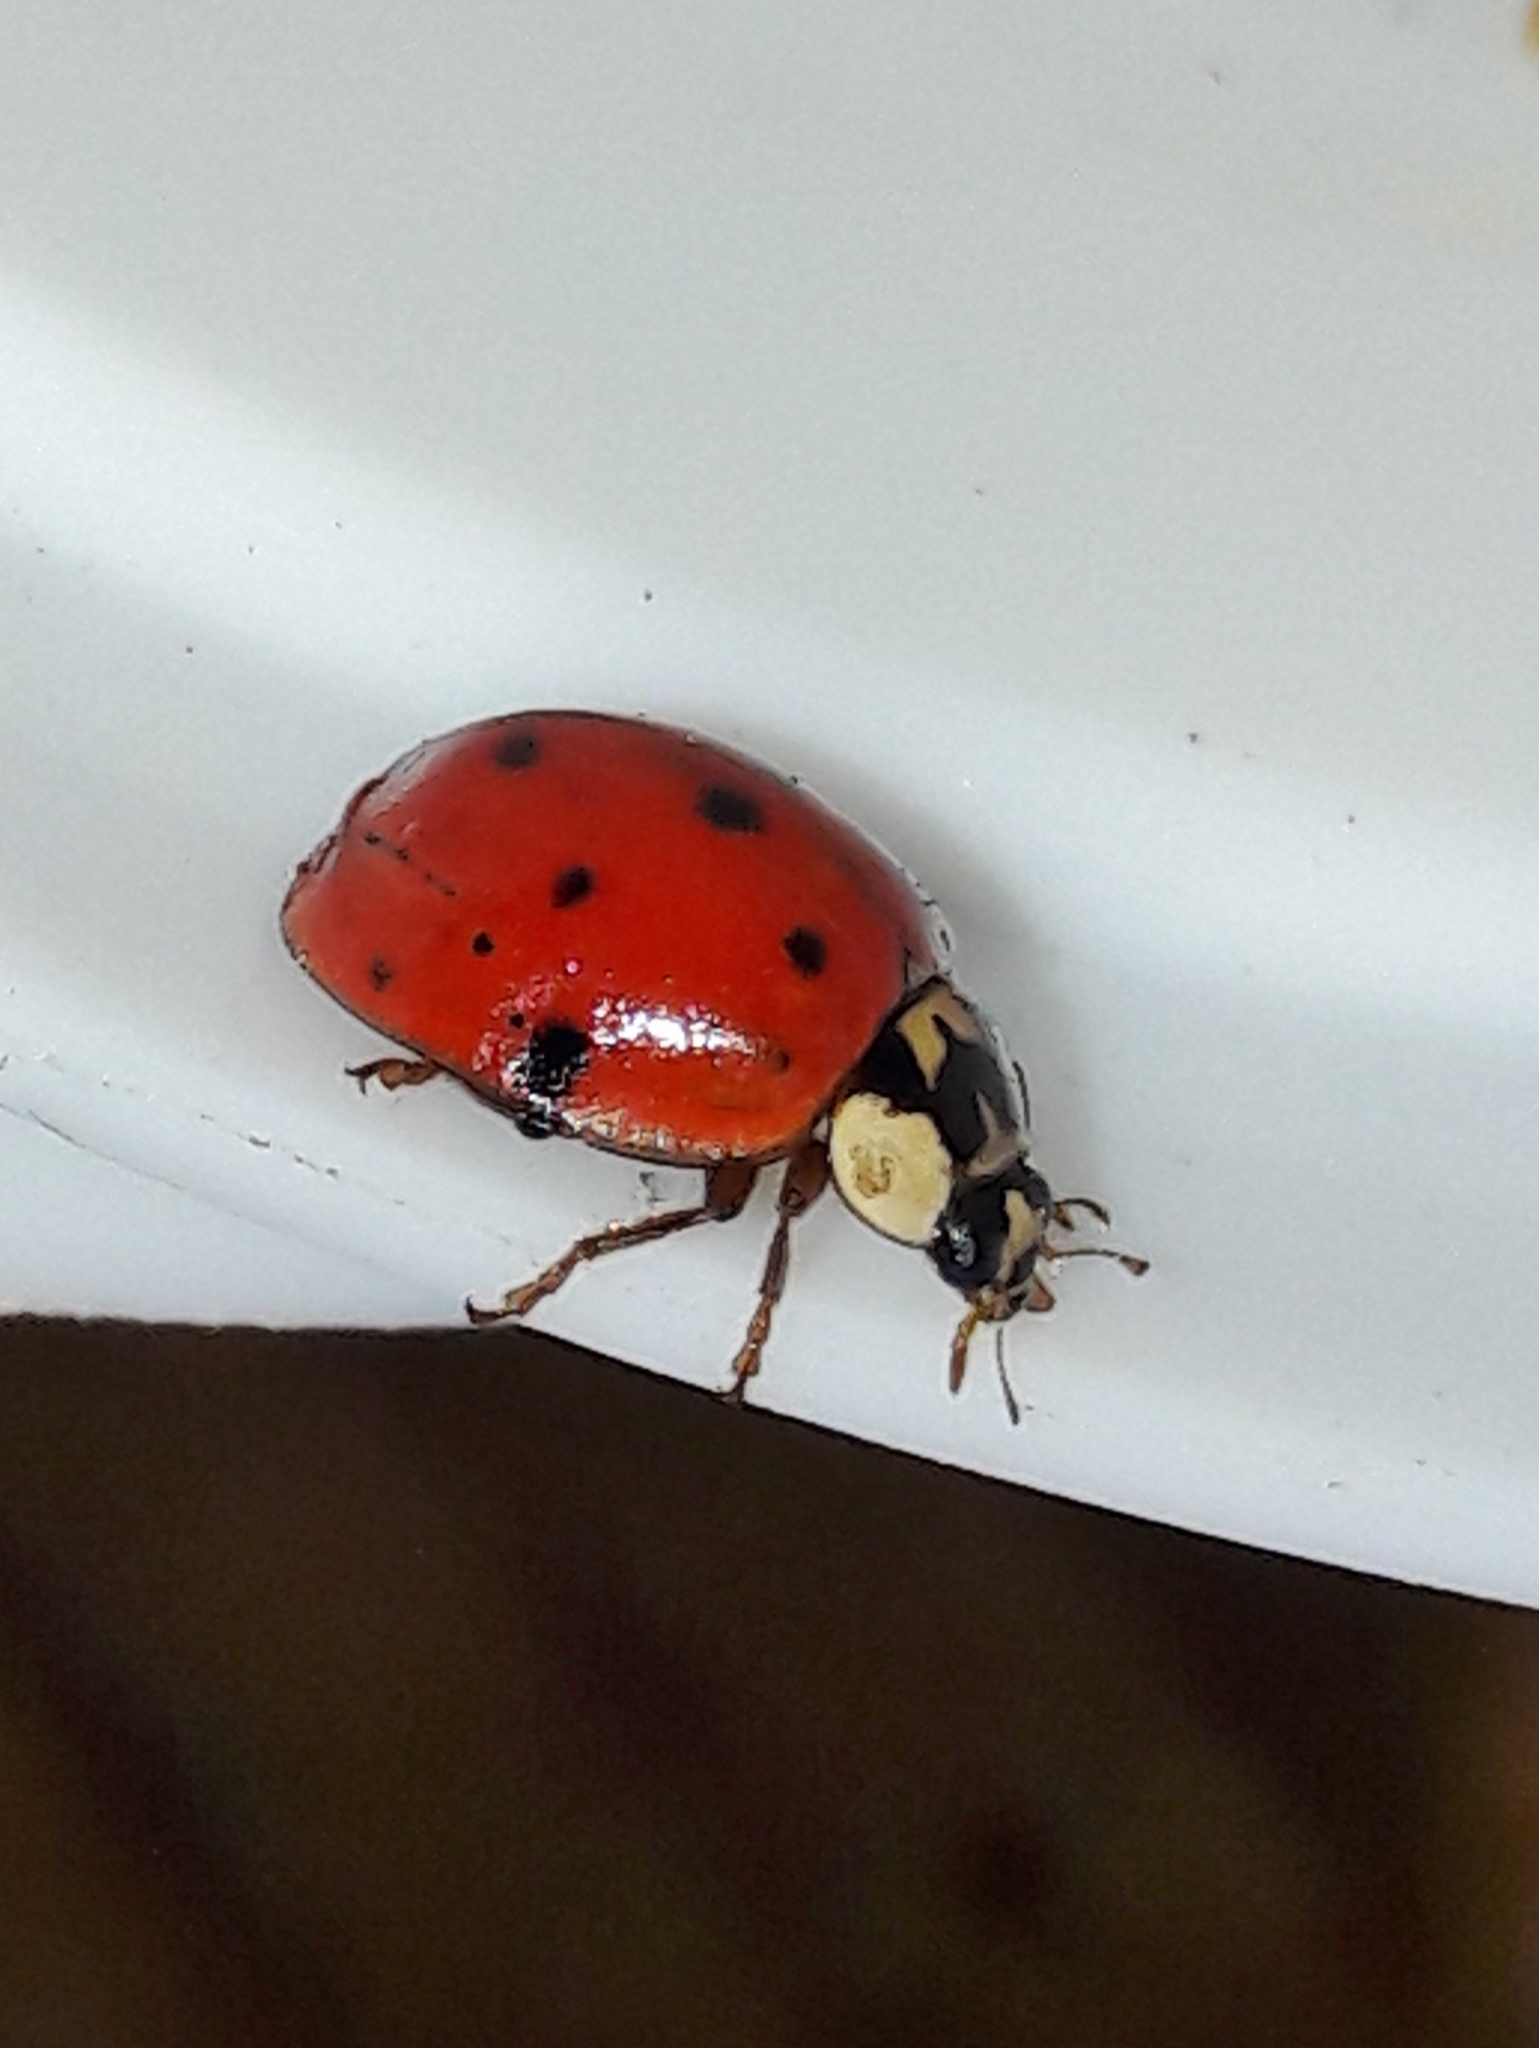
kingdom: Animalia
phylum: Arthropoda
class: Insecta
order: Coleoptera
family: Coccinellidae
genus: Harmonia
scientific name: Harmonia axyridis
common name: Harlequin ladybird
